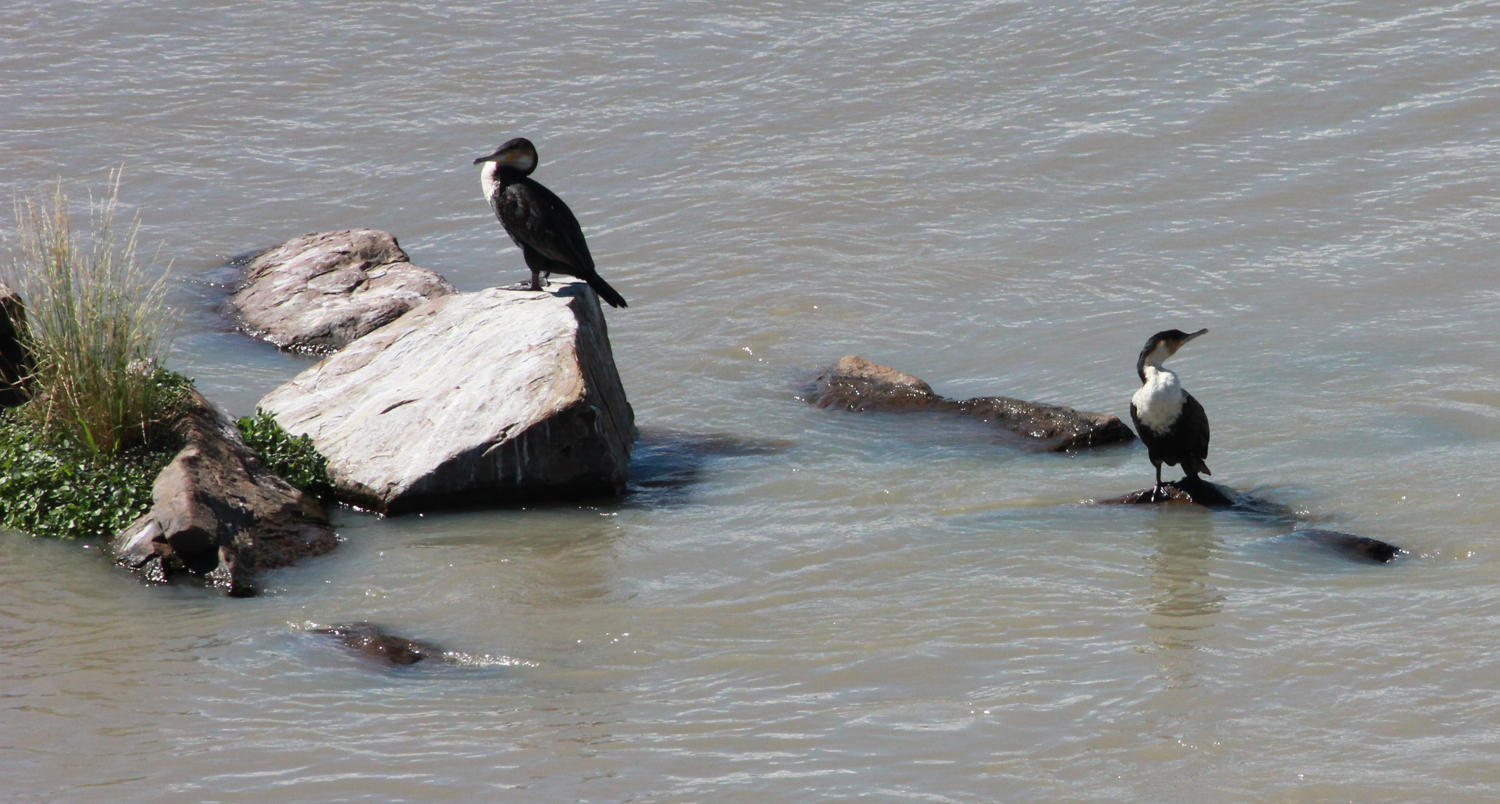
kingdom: Animalia
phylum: Chordata
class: Aves
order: Suliformes
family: Phalacrocoracidae
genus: Phalacrocorax
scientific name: Phalacrocorax carbo
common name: Great cormorant
